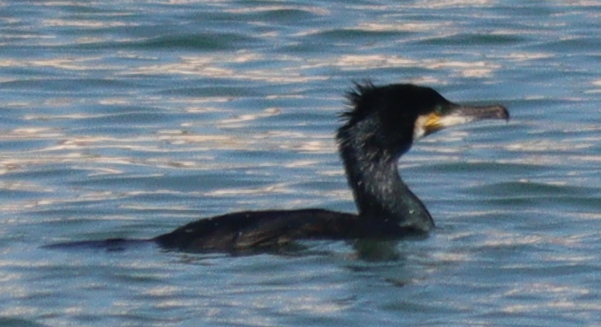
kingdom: Animalia
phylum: Chordata
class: Aves
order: Suliformes
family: Phalacrocoracidae
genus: Phalacrocorax
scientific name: Phalacrocorax carbo
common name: Great cormorant
